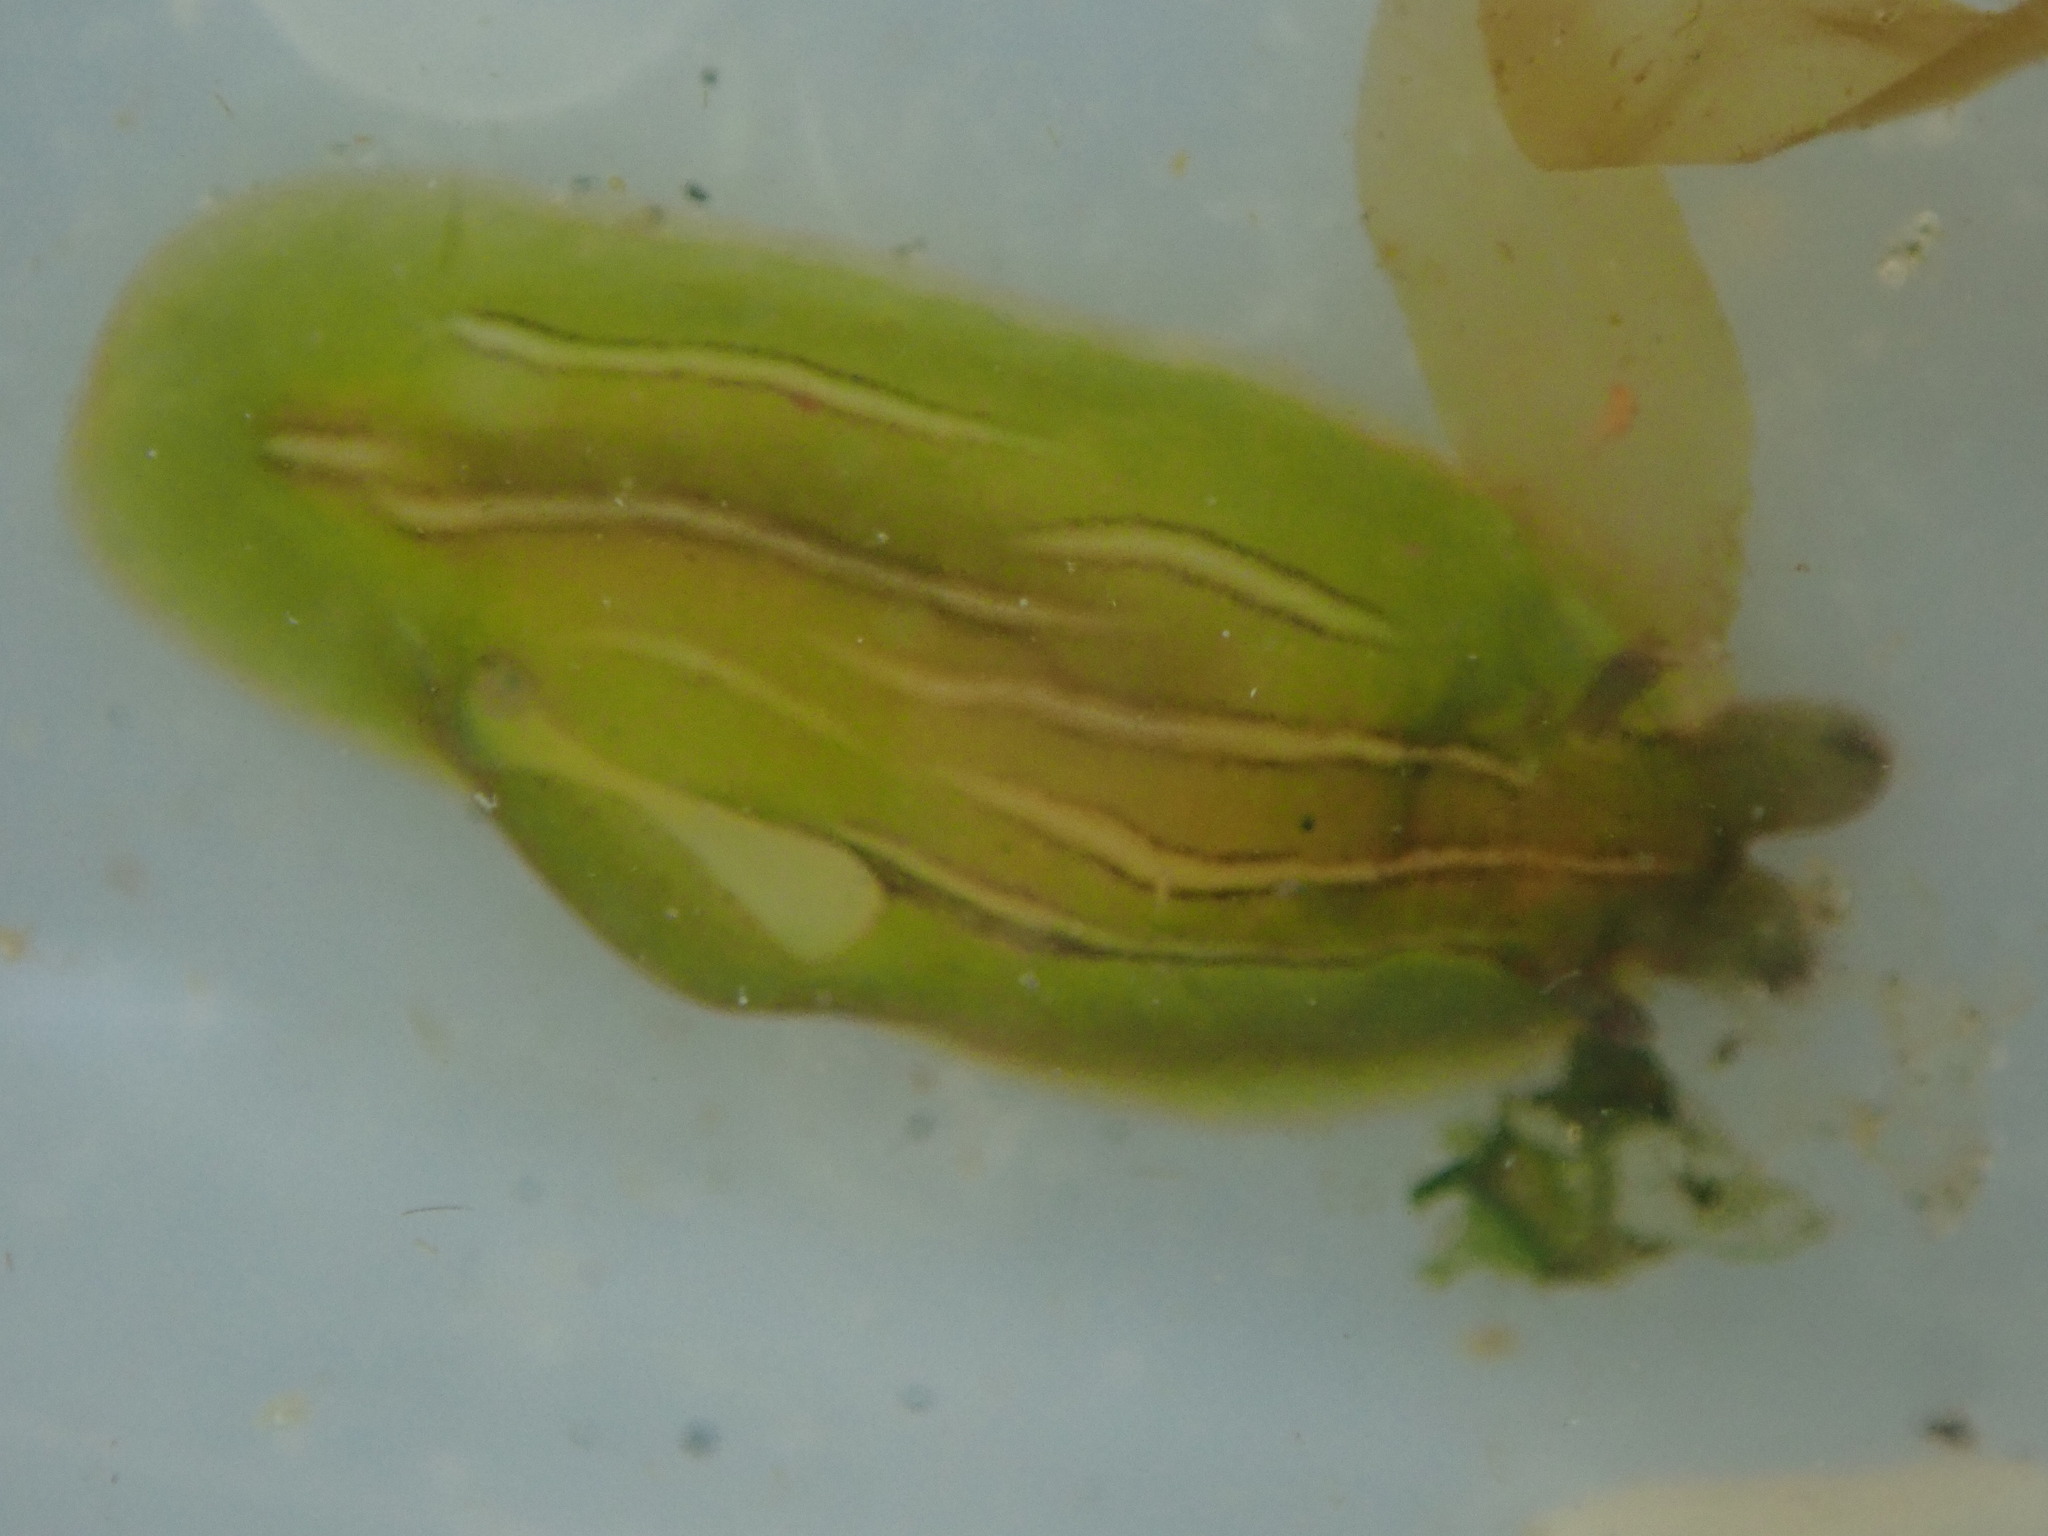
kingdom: Animalia
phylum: Mollusca
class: Gastropoda
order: Aplysiida
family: Aplysiidae
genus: Phyllaplysia
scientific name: Phyllaplysia taylori
